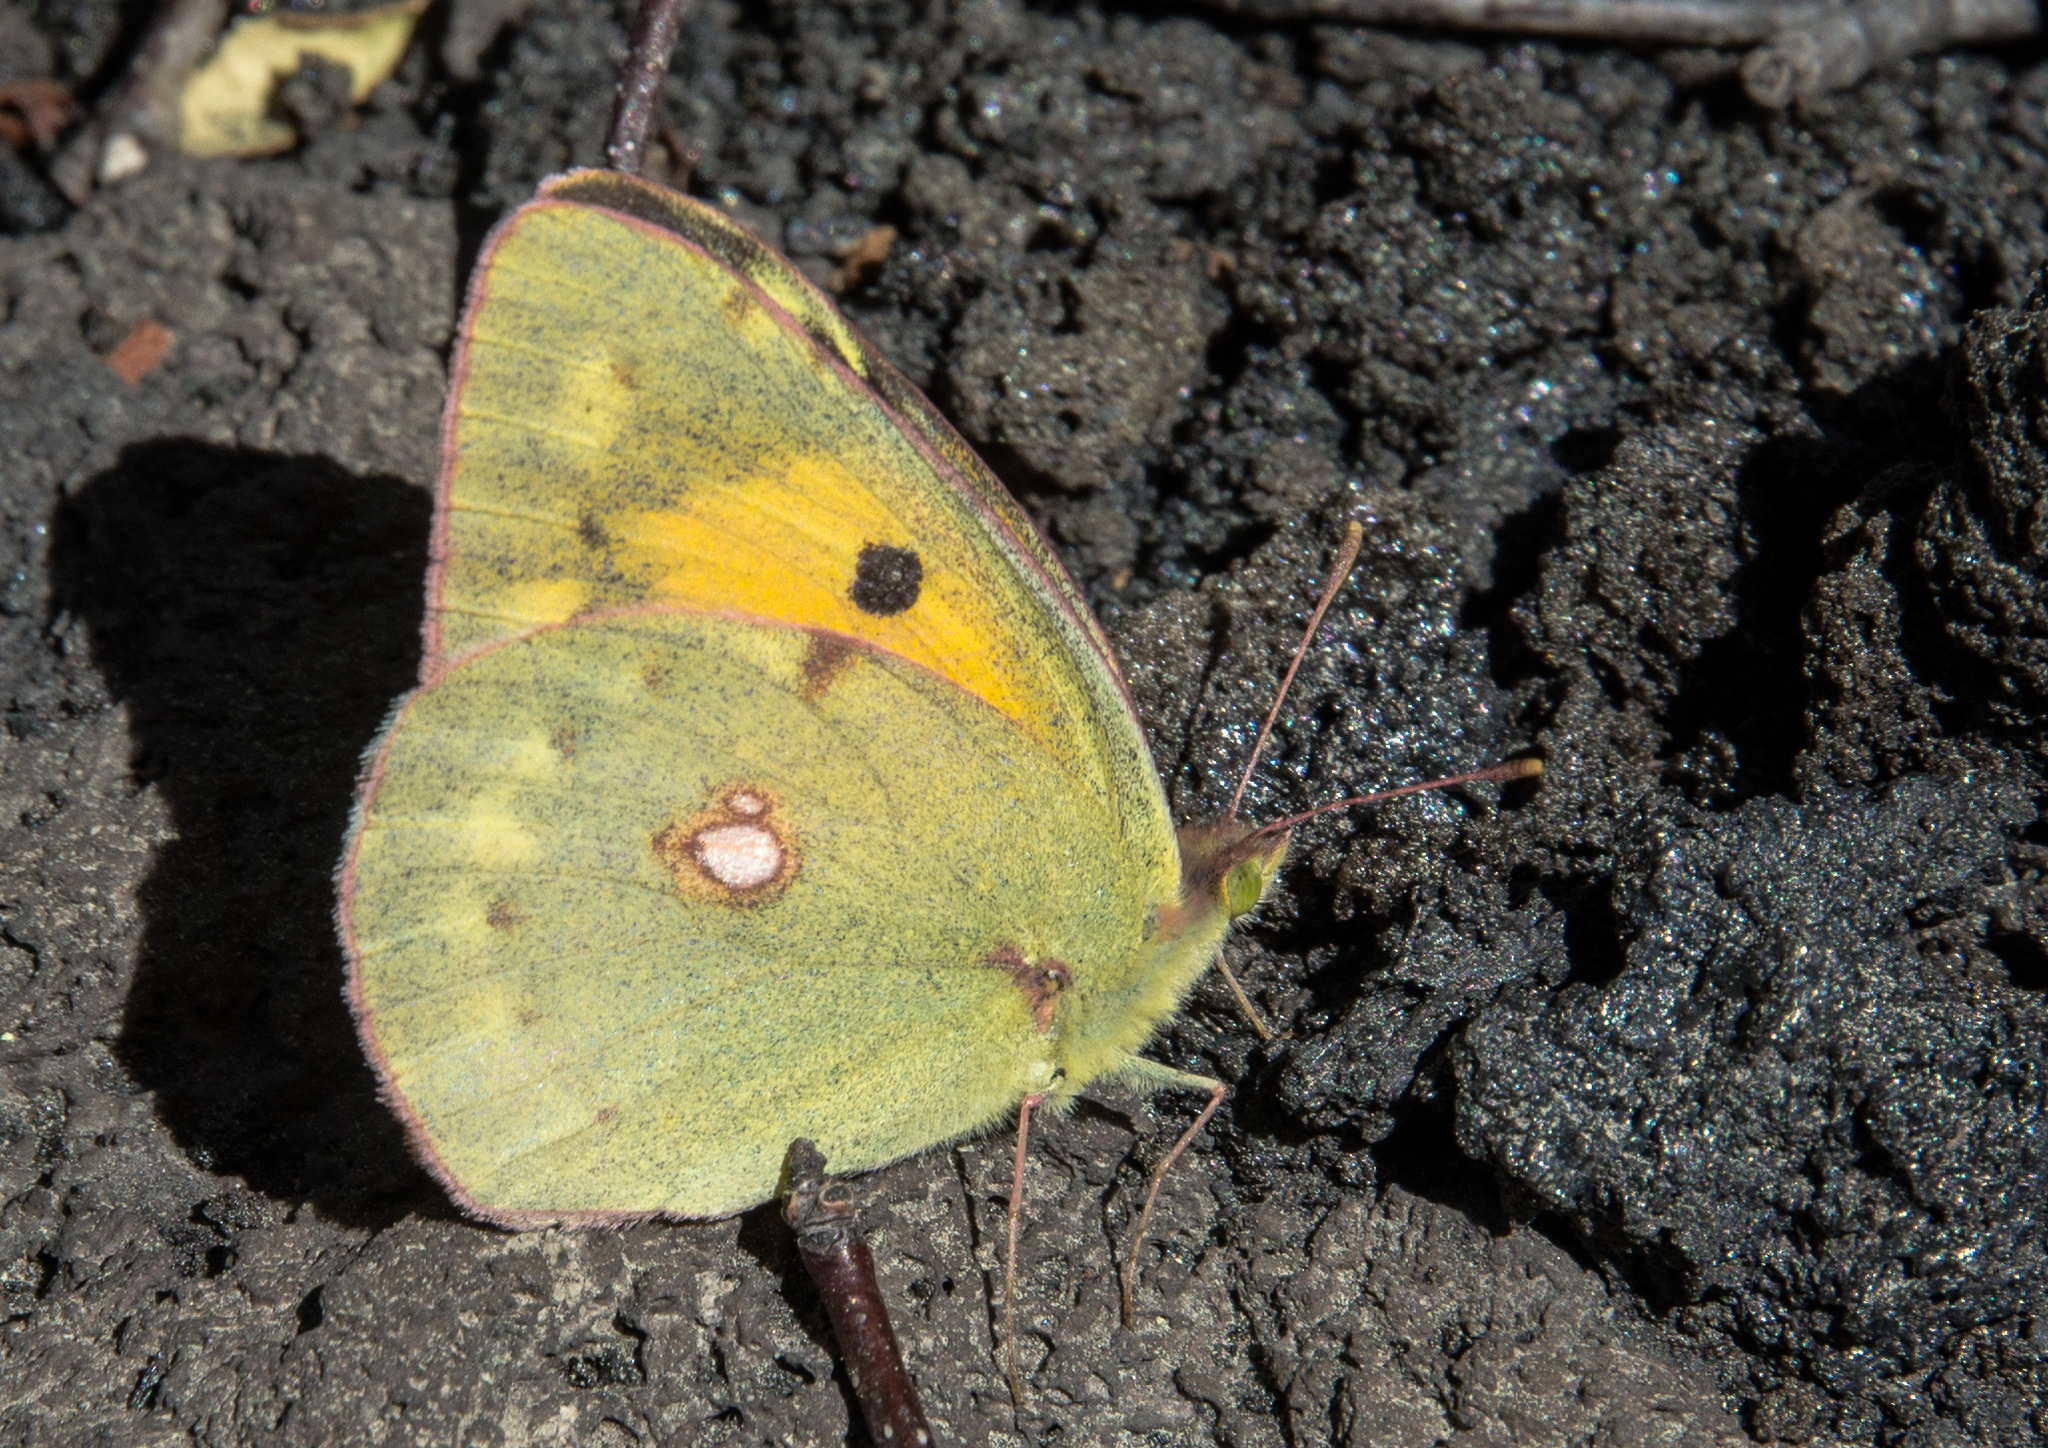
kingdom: Animalia
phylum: Arthropoda
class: Insecta
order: Lepidoptera
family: Pieridae
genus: Colias
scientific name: Colias croceus
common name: Clouded yellow
